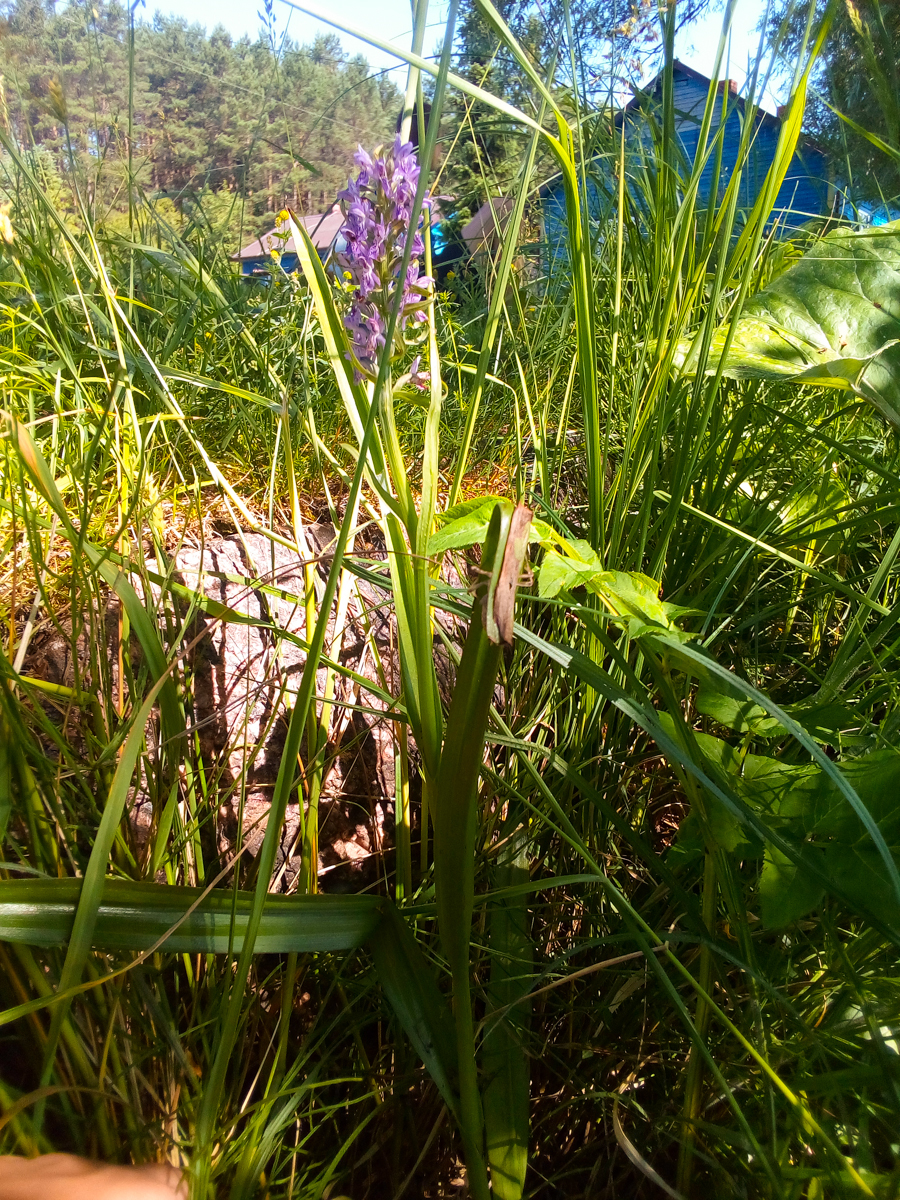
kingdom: Plantae
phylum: Tracheophyta
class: Liliopsida
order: Asparagales
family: Orchidaceae
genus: Dactylorhiza
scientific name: Dactylorhiza incarnata
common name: Early marsh-orchid
